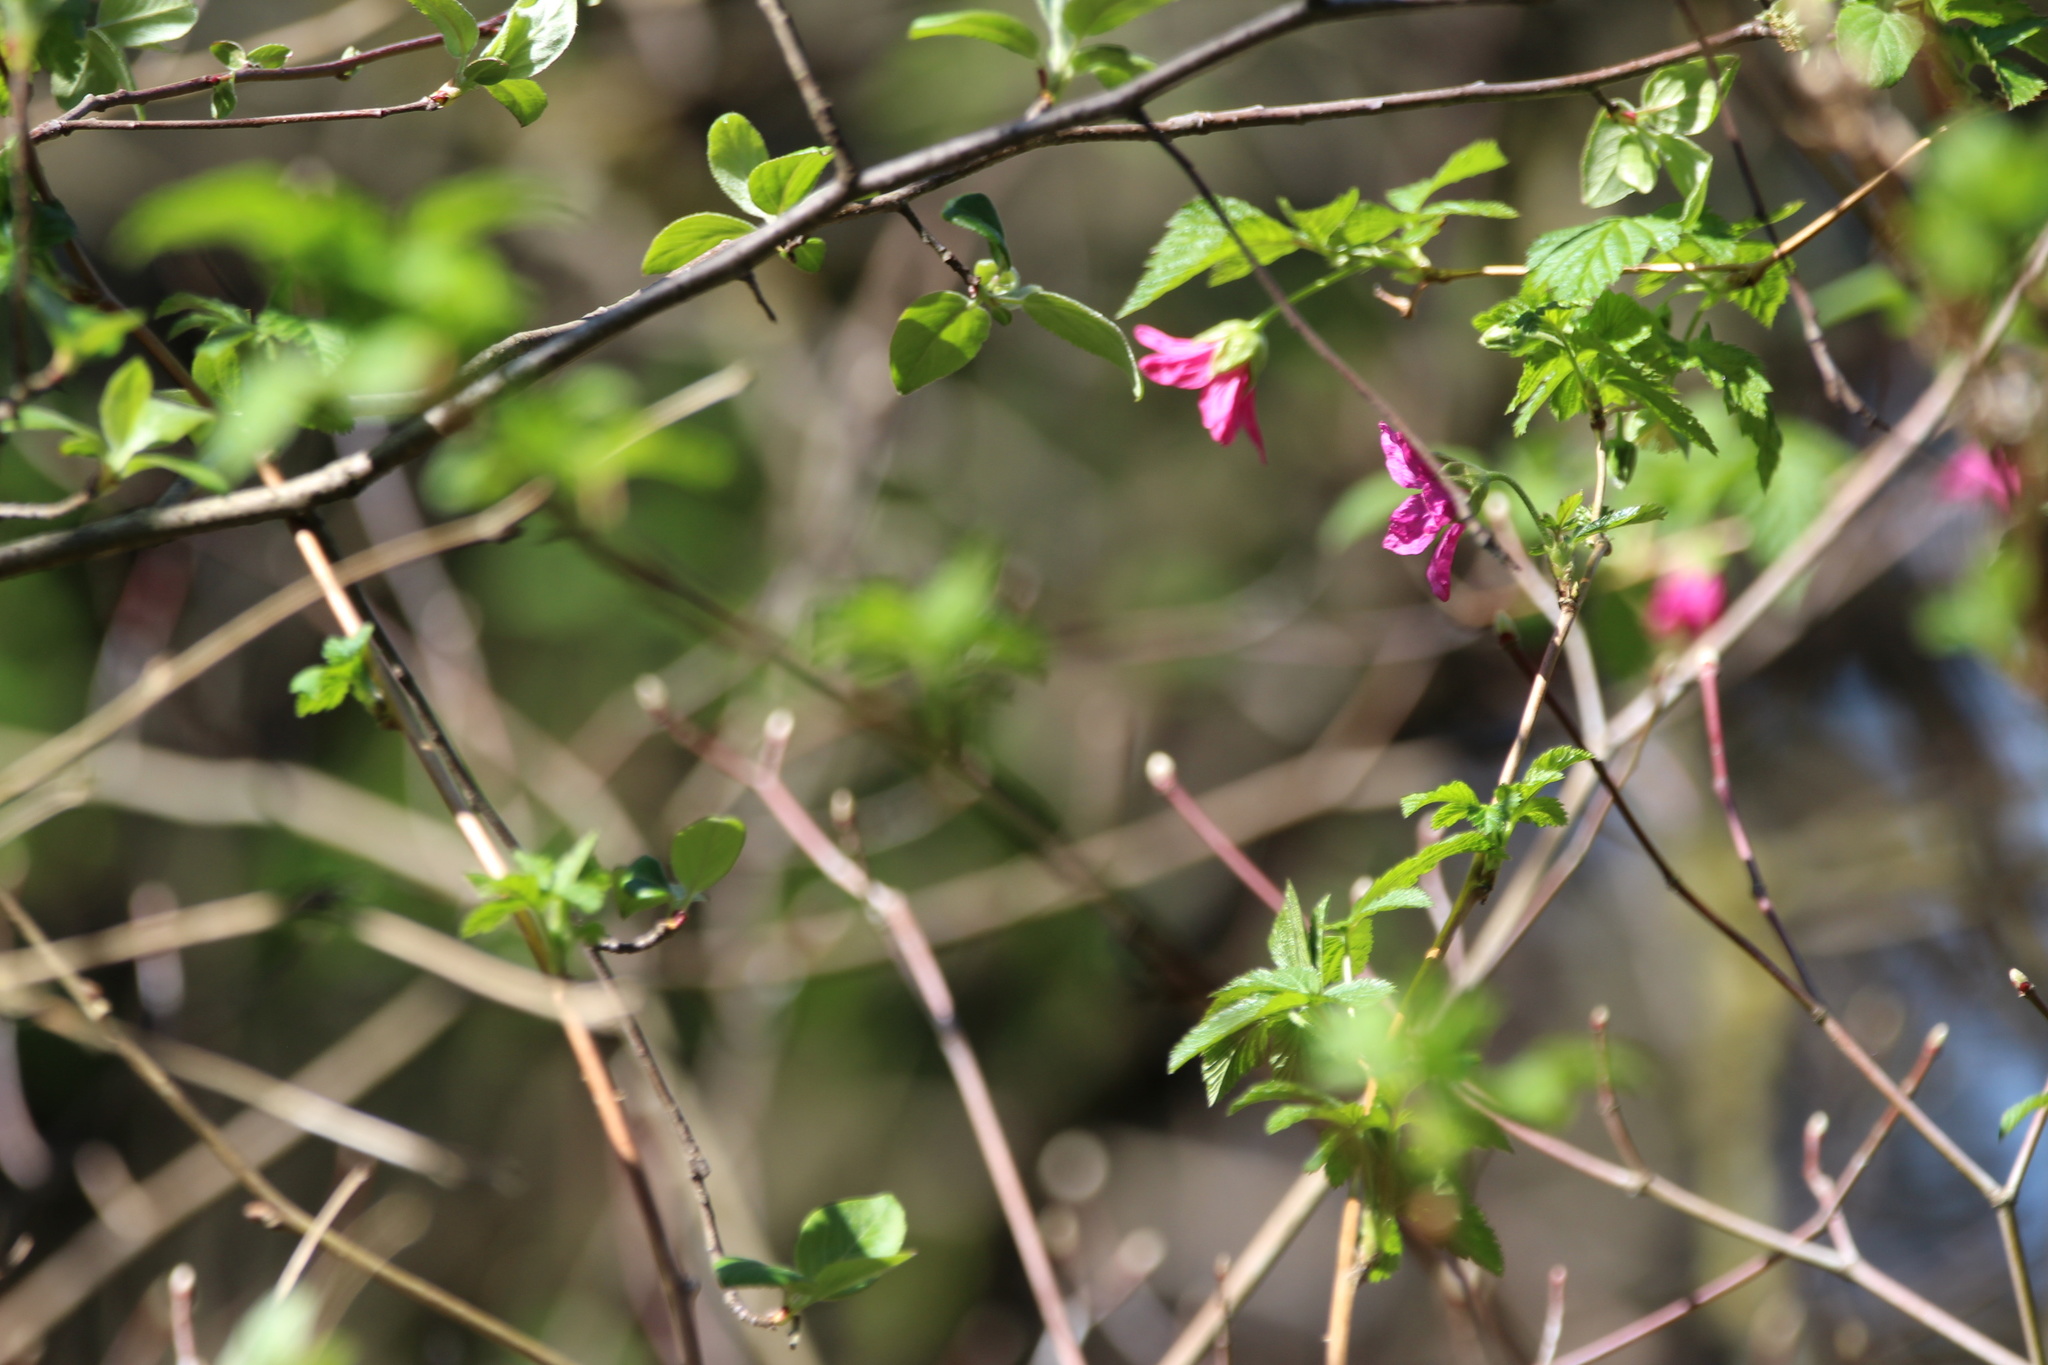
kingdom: Plantae
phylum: Tracheophyta
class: Magnoliopsida
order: Rosales
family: Rosaceae
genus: Rubus
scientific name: Rubus spectabilis
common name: Salmonberry
